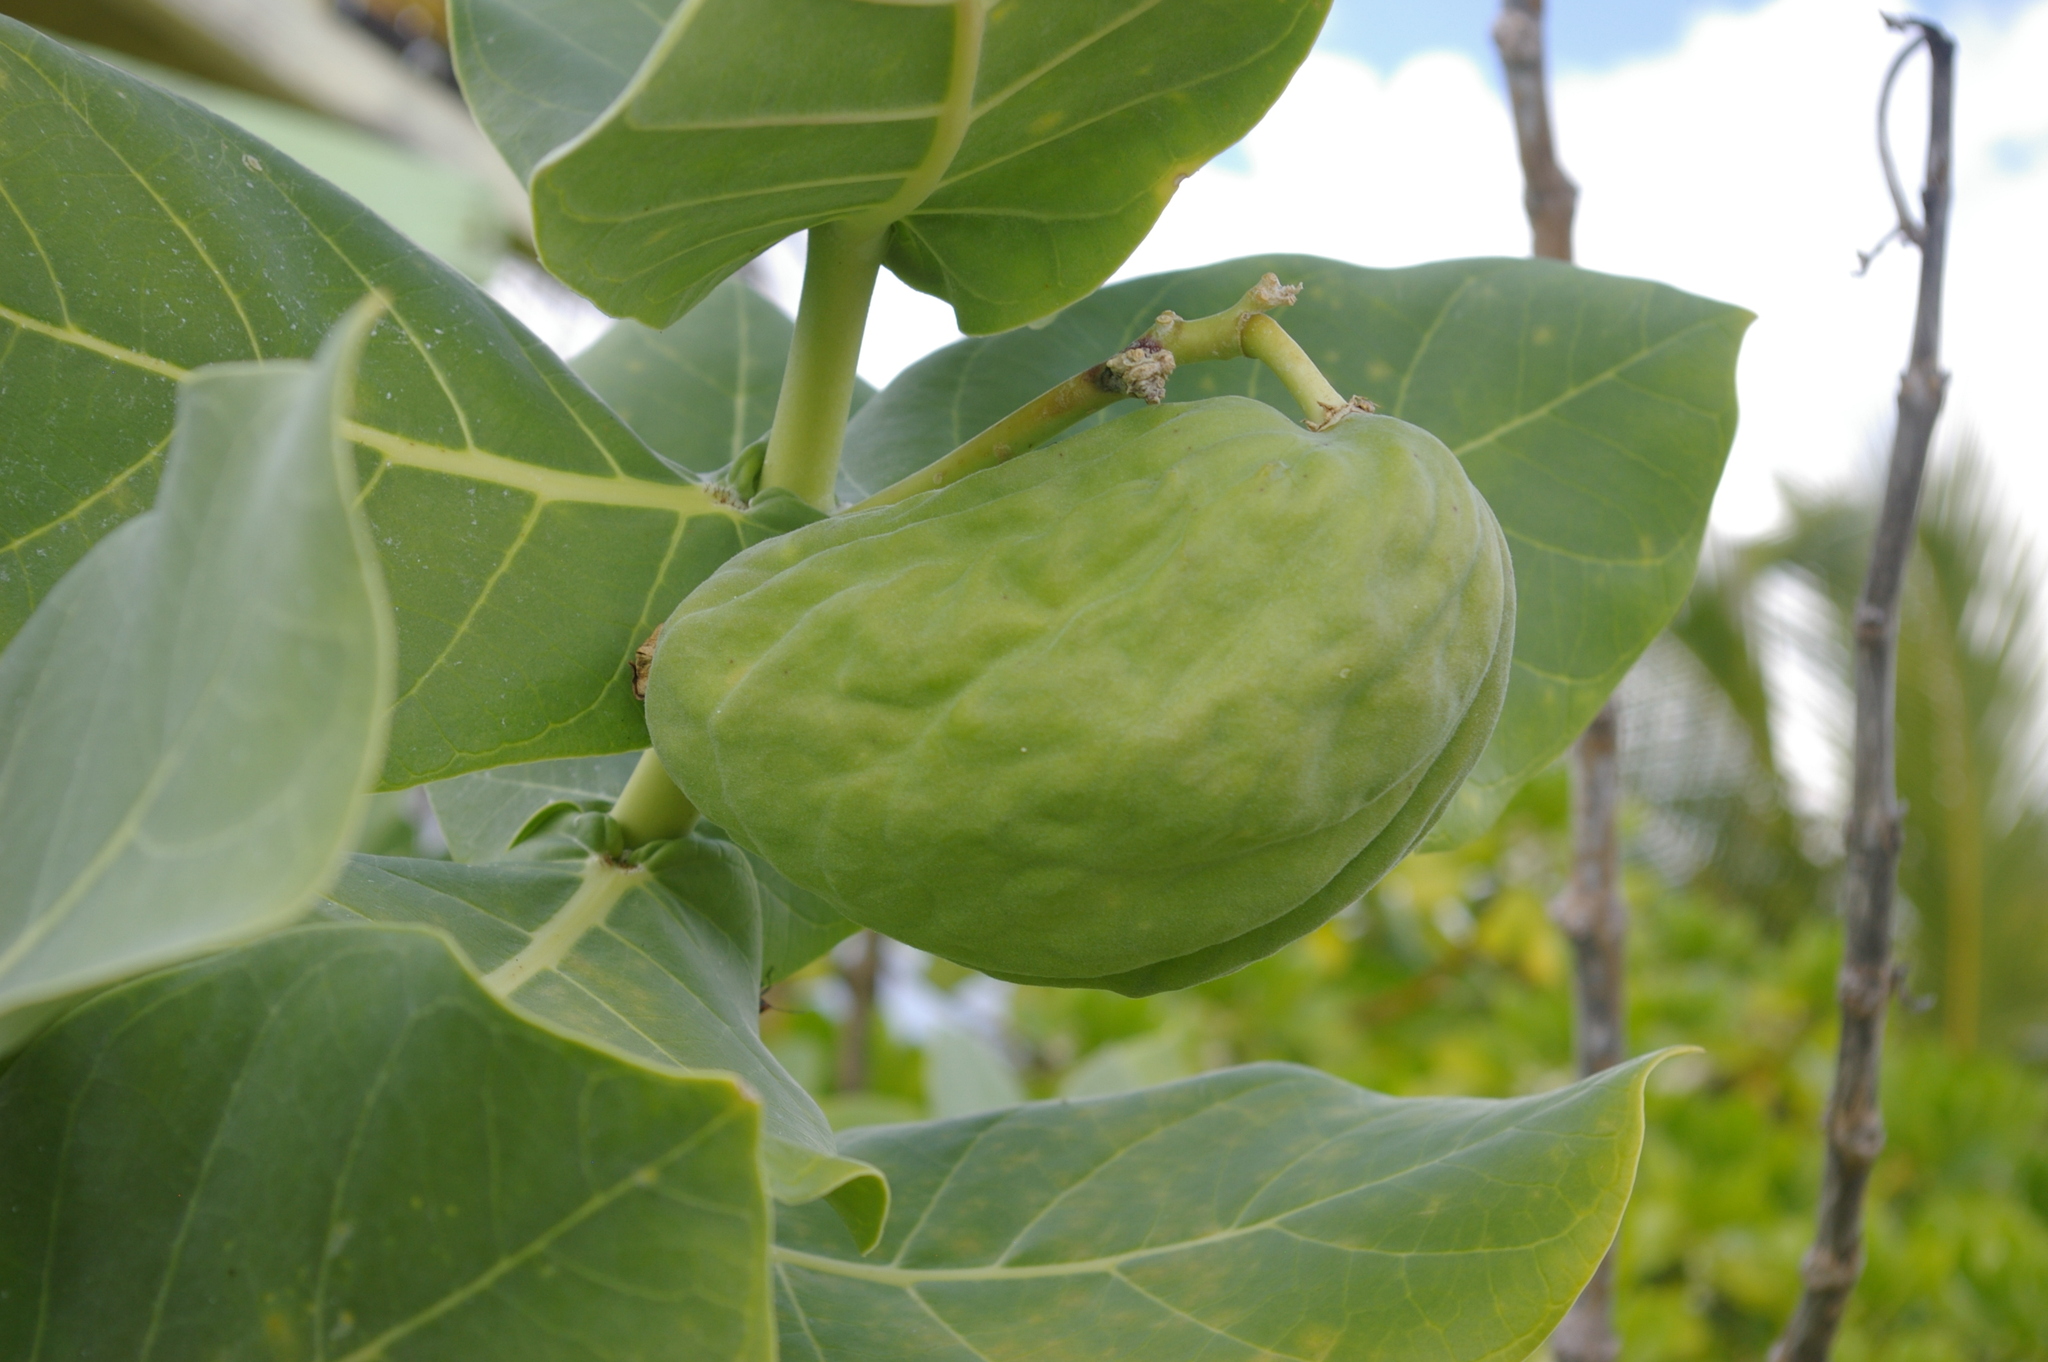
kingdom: Plantae
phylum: Tracheophyta
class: Magnoliopsida
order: Gentianales
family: Apocynaceae
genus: Calotropis
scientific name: Calotropis procera
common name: Roostertree
